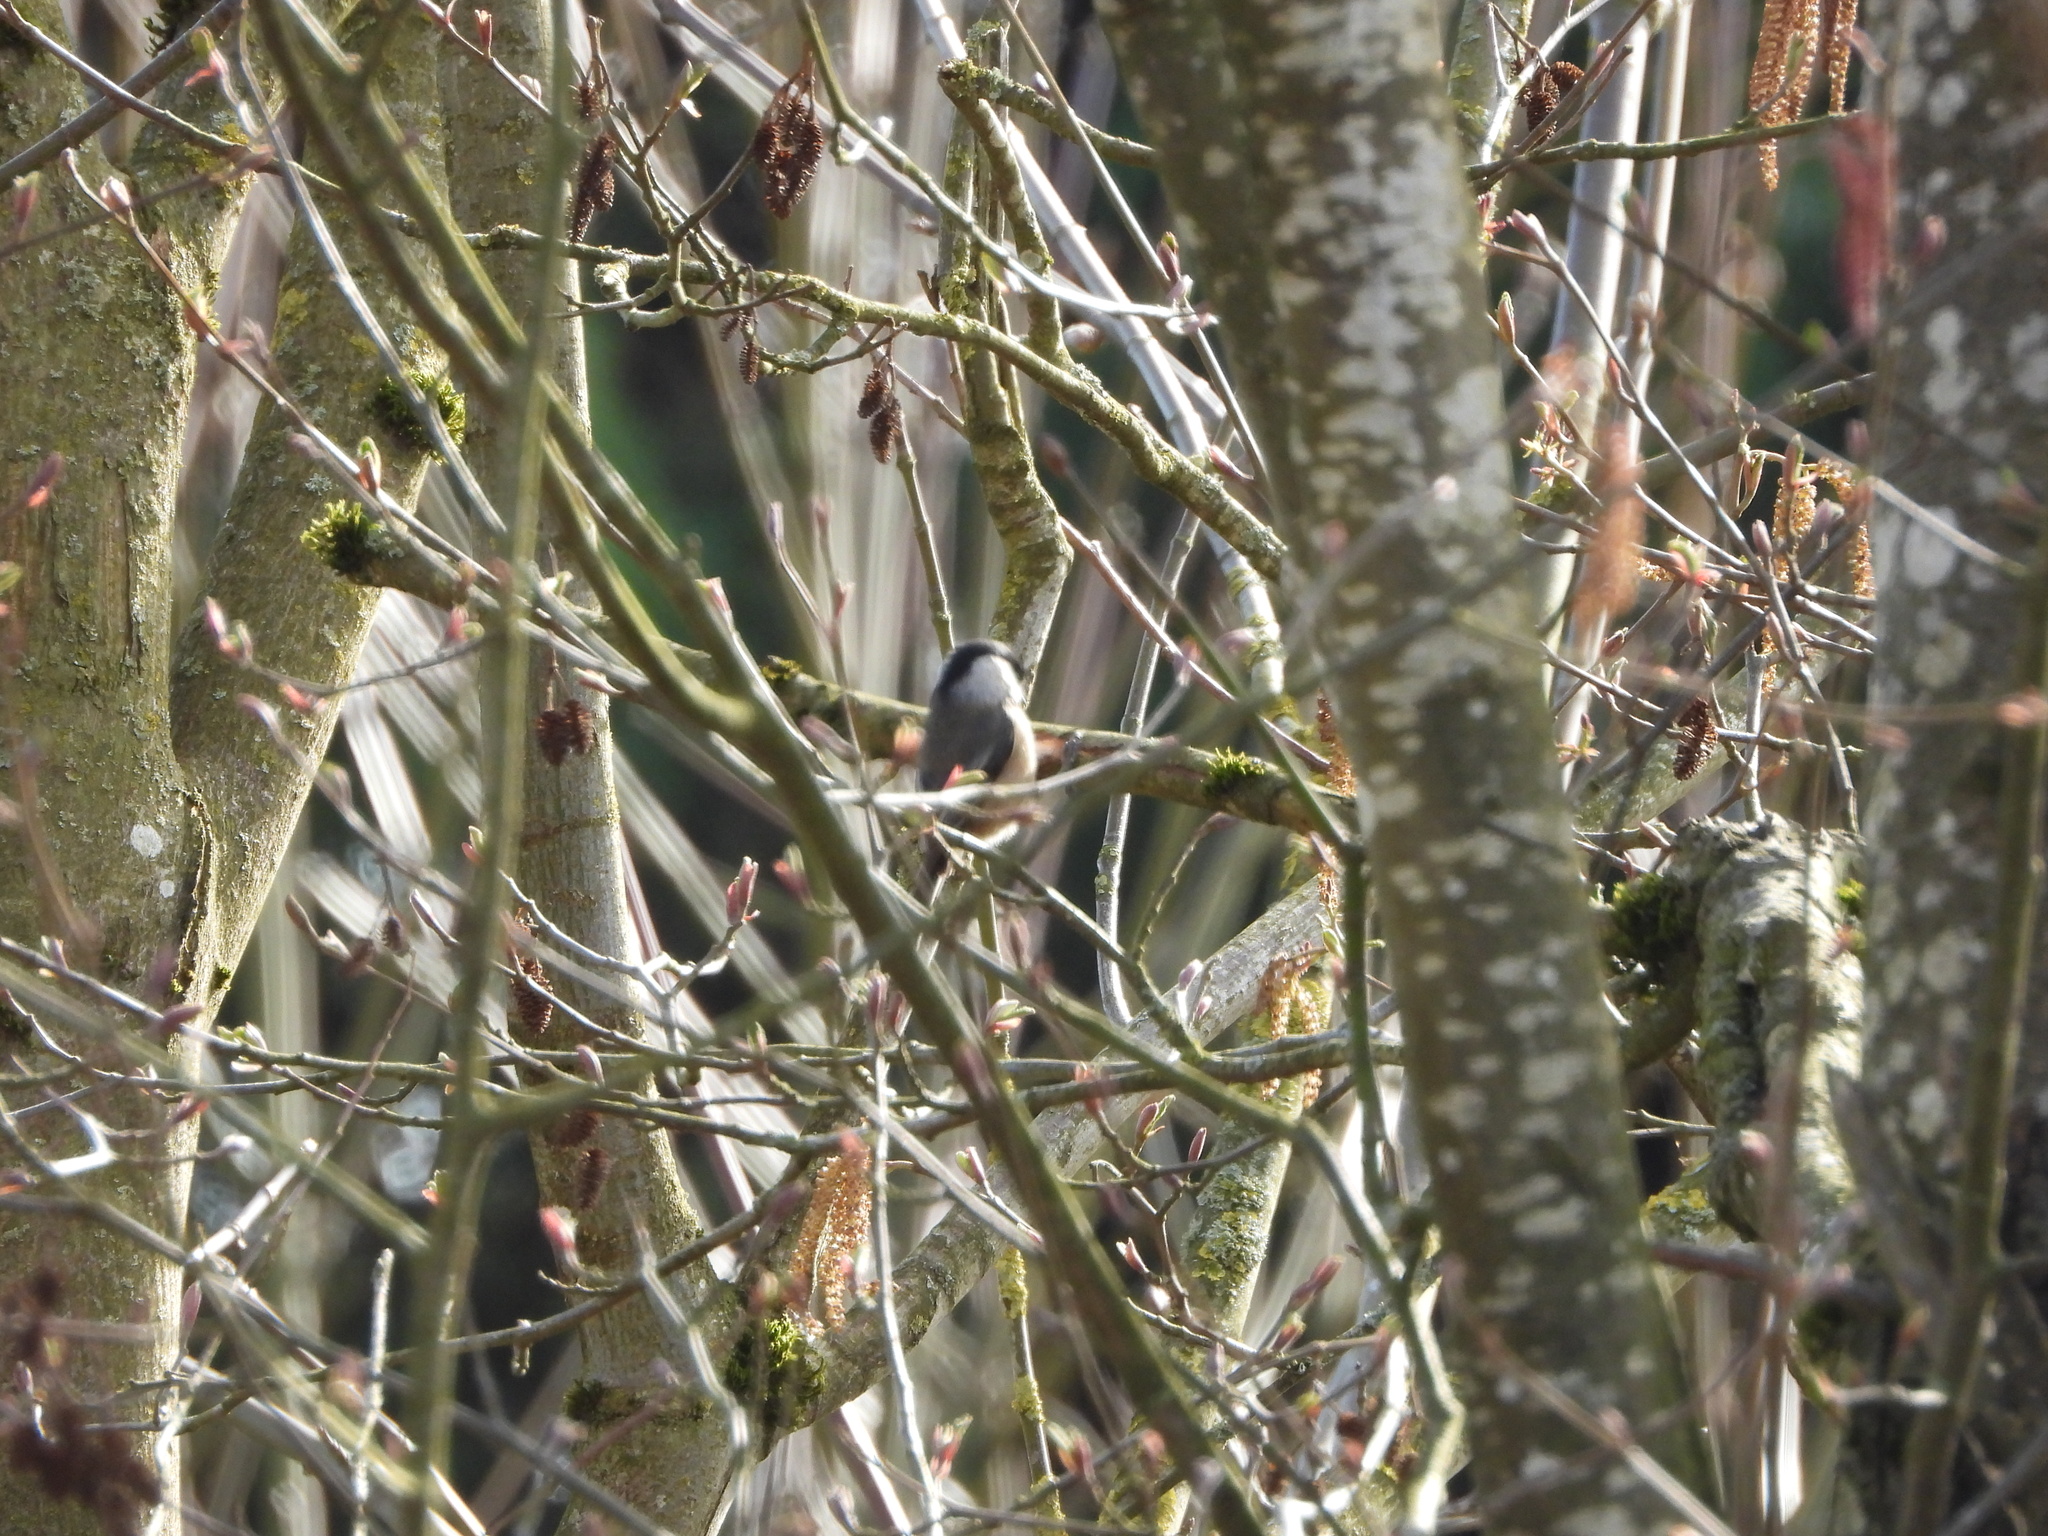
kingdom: Animalia
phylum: Chordata
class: Aves
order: Passeriformes
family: Paridae
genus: Poecile
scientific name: Poecile atricapillus
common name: Black-capped chickadee
